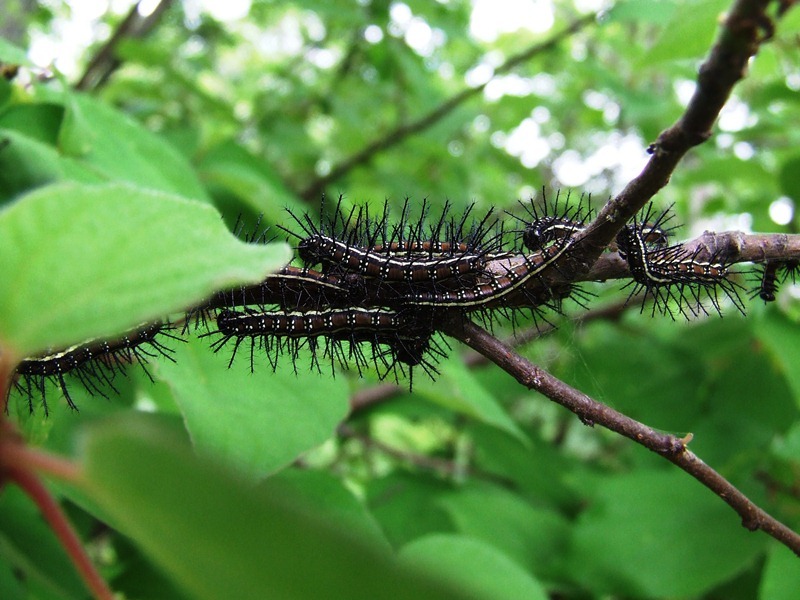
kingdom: Animalia
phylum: Arthropoda
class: Insecta
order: Lepidoptera
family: Nymphalidae
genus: Acraea
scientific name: Acraea Telchinia burni
